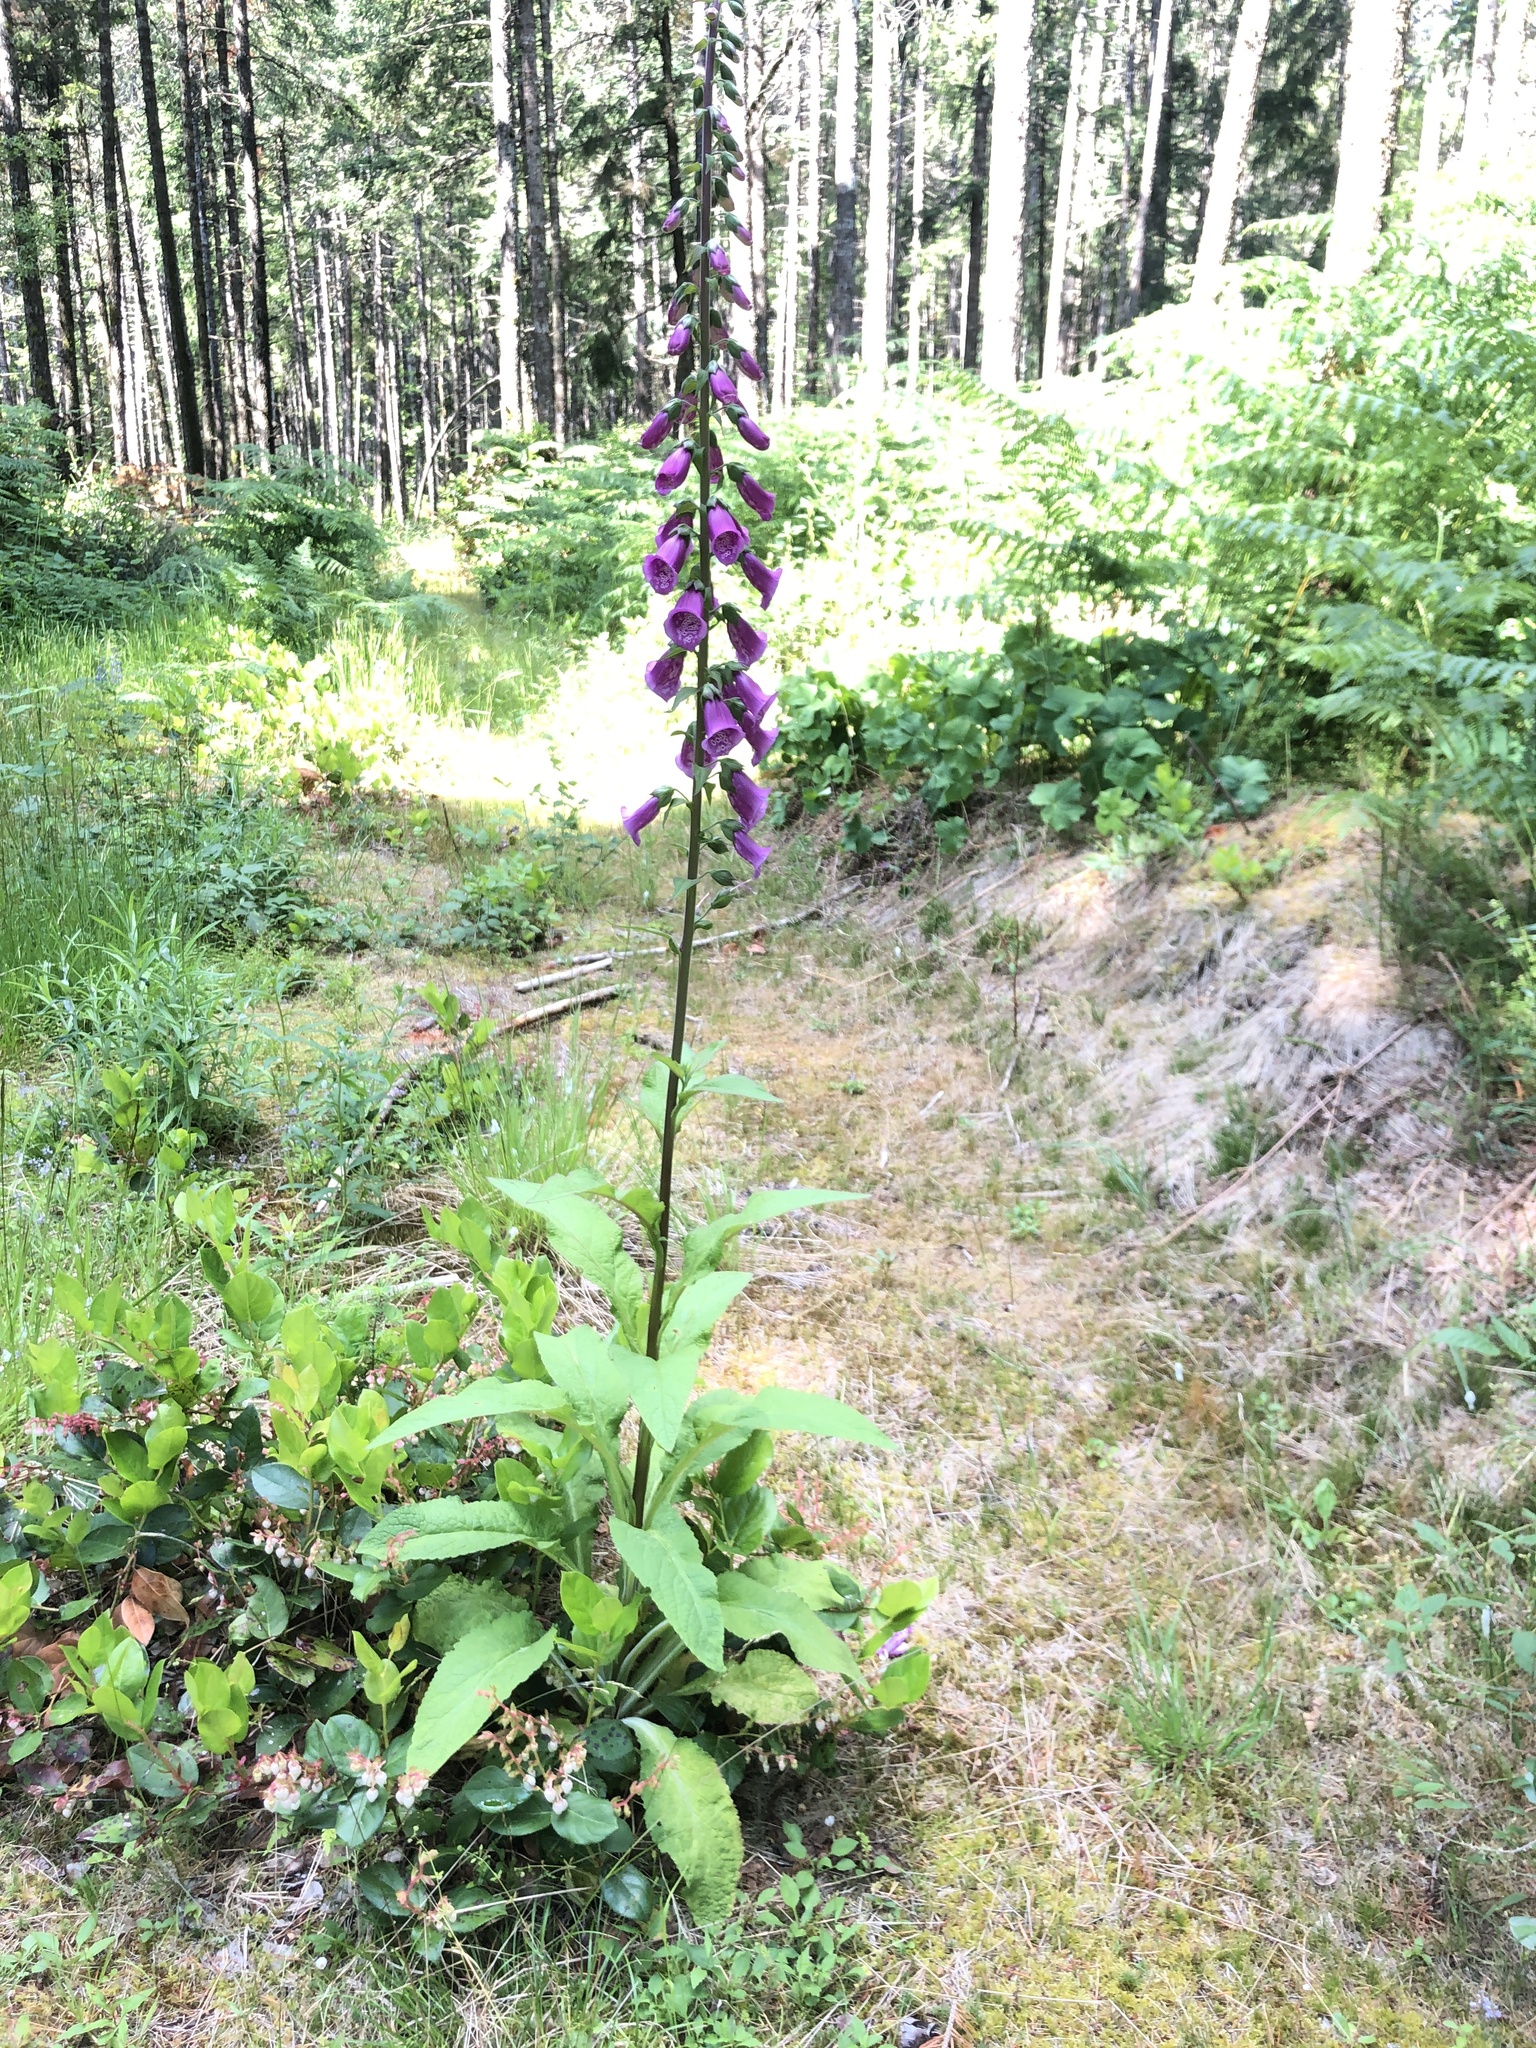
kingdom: Plantae
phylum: Tracheophyta
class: Magnoliopsida
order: Lamiales
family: Plantaginaceae
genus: Digitalis
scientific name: Digitalis purpurea
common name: Foxglove
